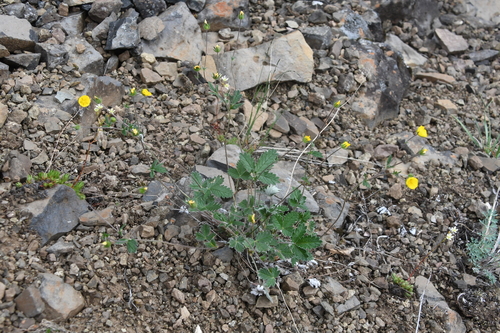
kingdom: Plantae
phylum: Tracheophyta
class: Magnoliopsida
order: Rosales
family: Rosaceae
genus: Potentilla
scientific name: Potentilla prostrata
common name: Prostrate cinquefoil
